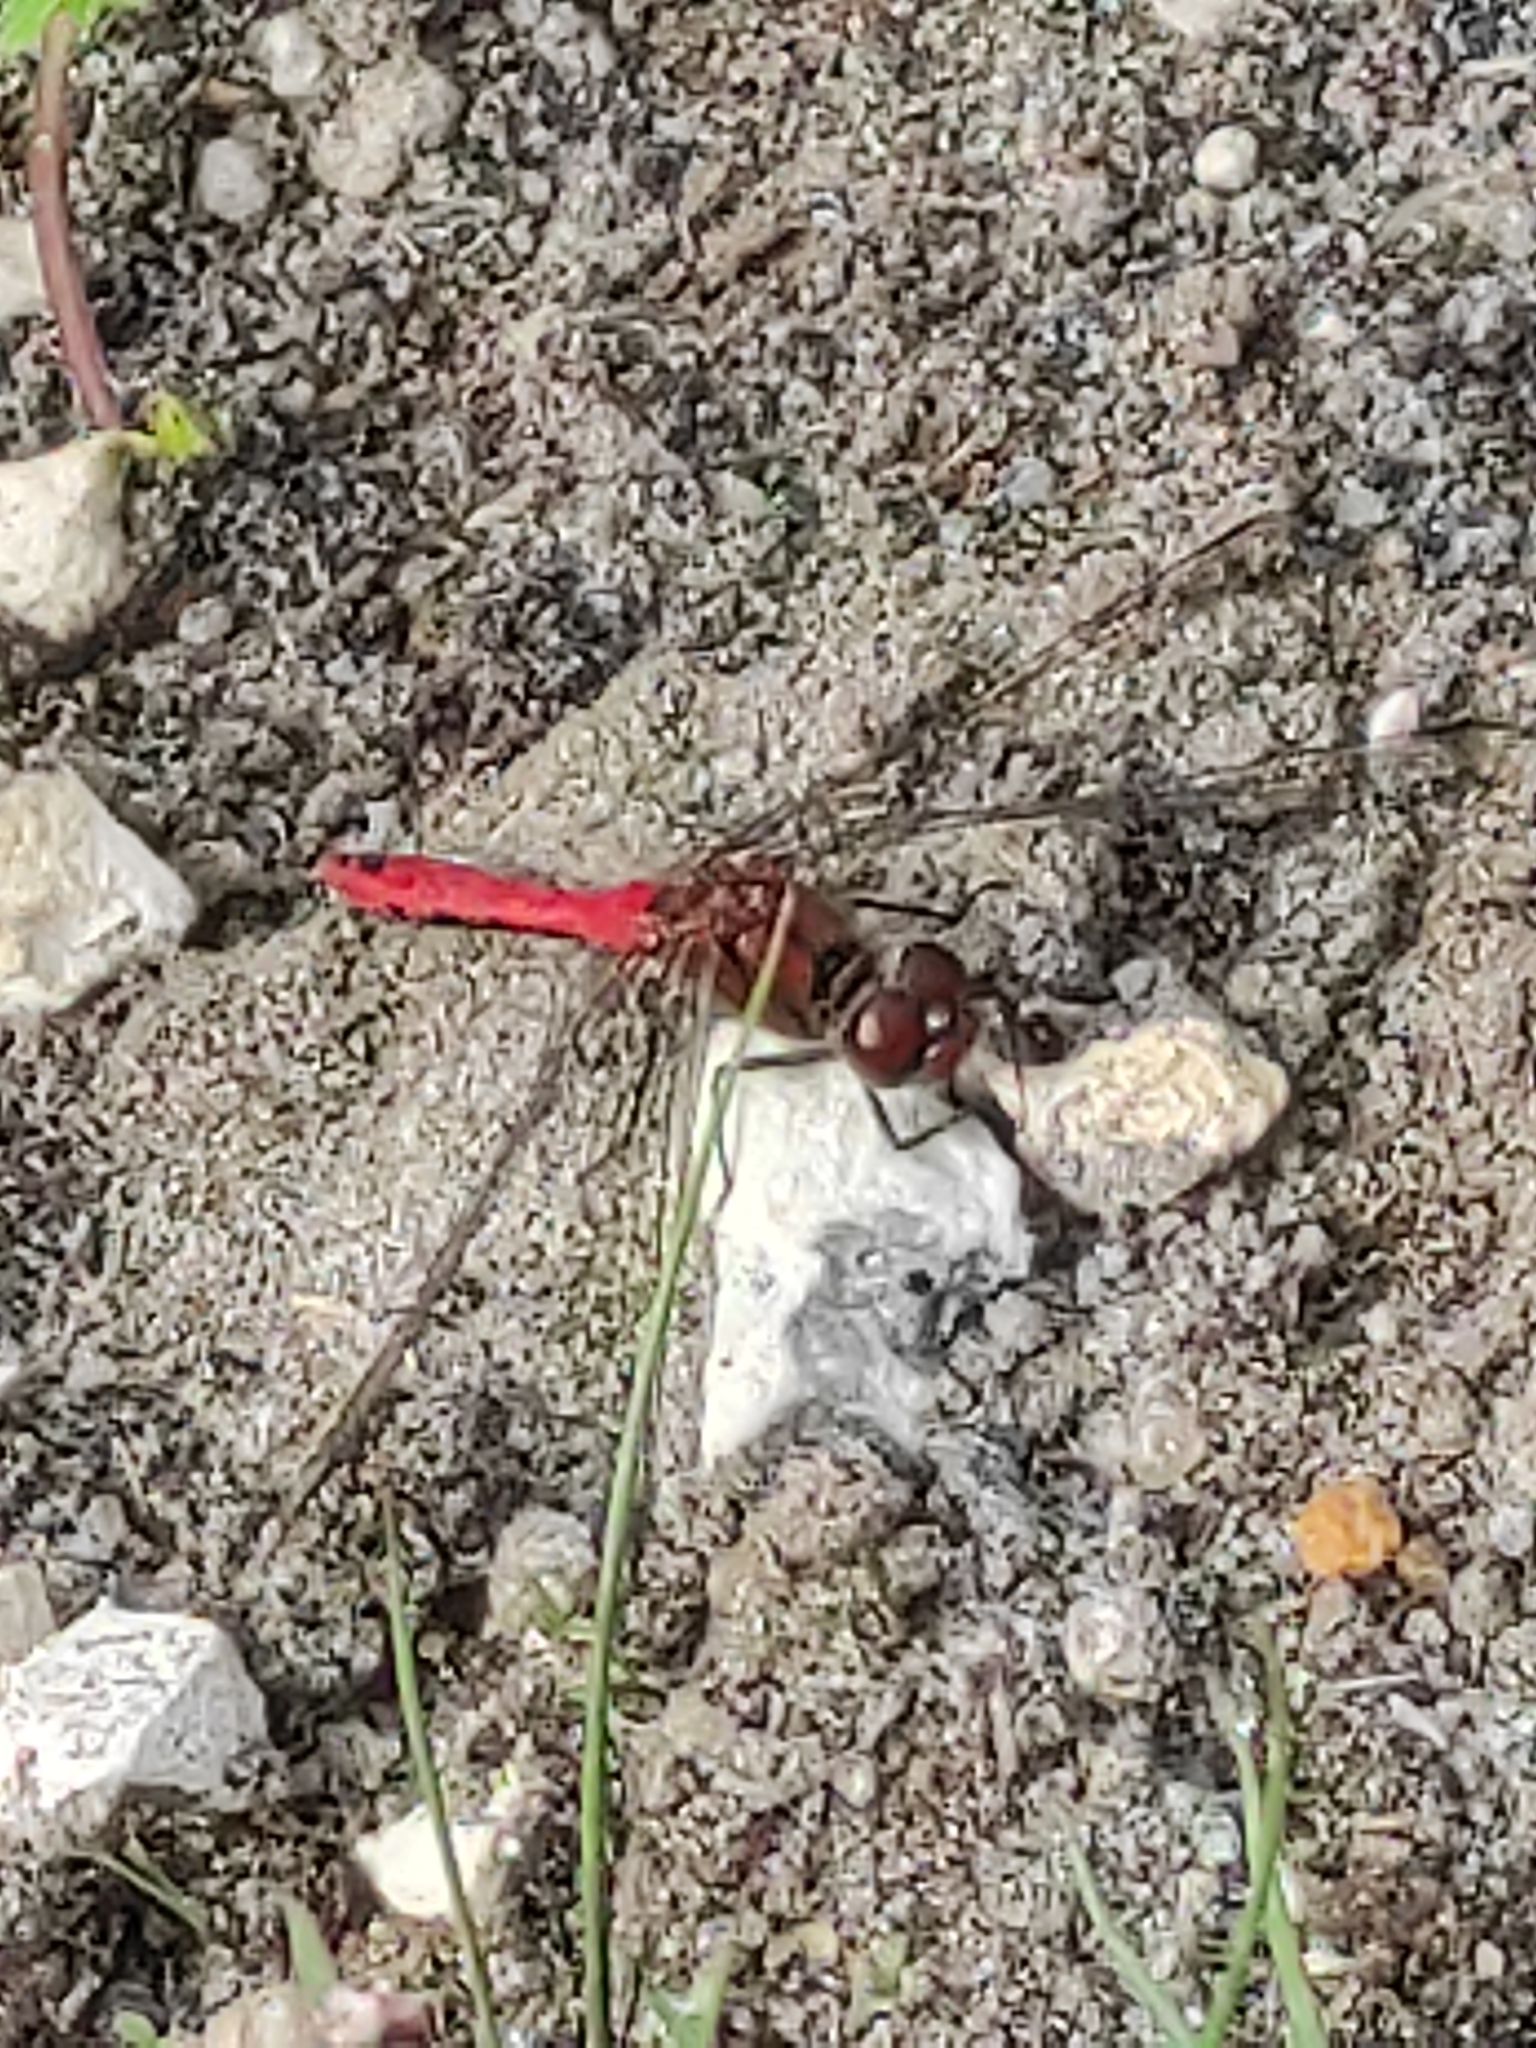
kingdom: Animalia
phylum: Arthropoda
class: Insecta
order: Odonata
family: Libellulidae
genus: Sympetrum
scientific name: Sympetrum sanguineum
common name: Ruddy darter
